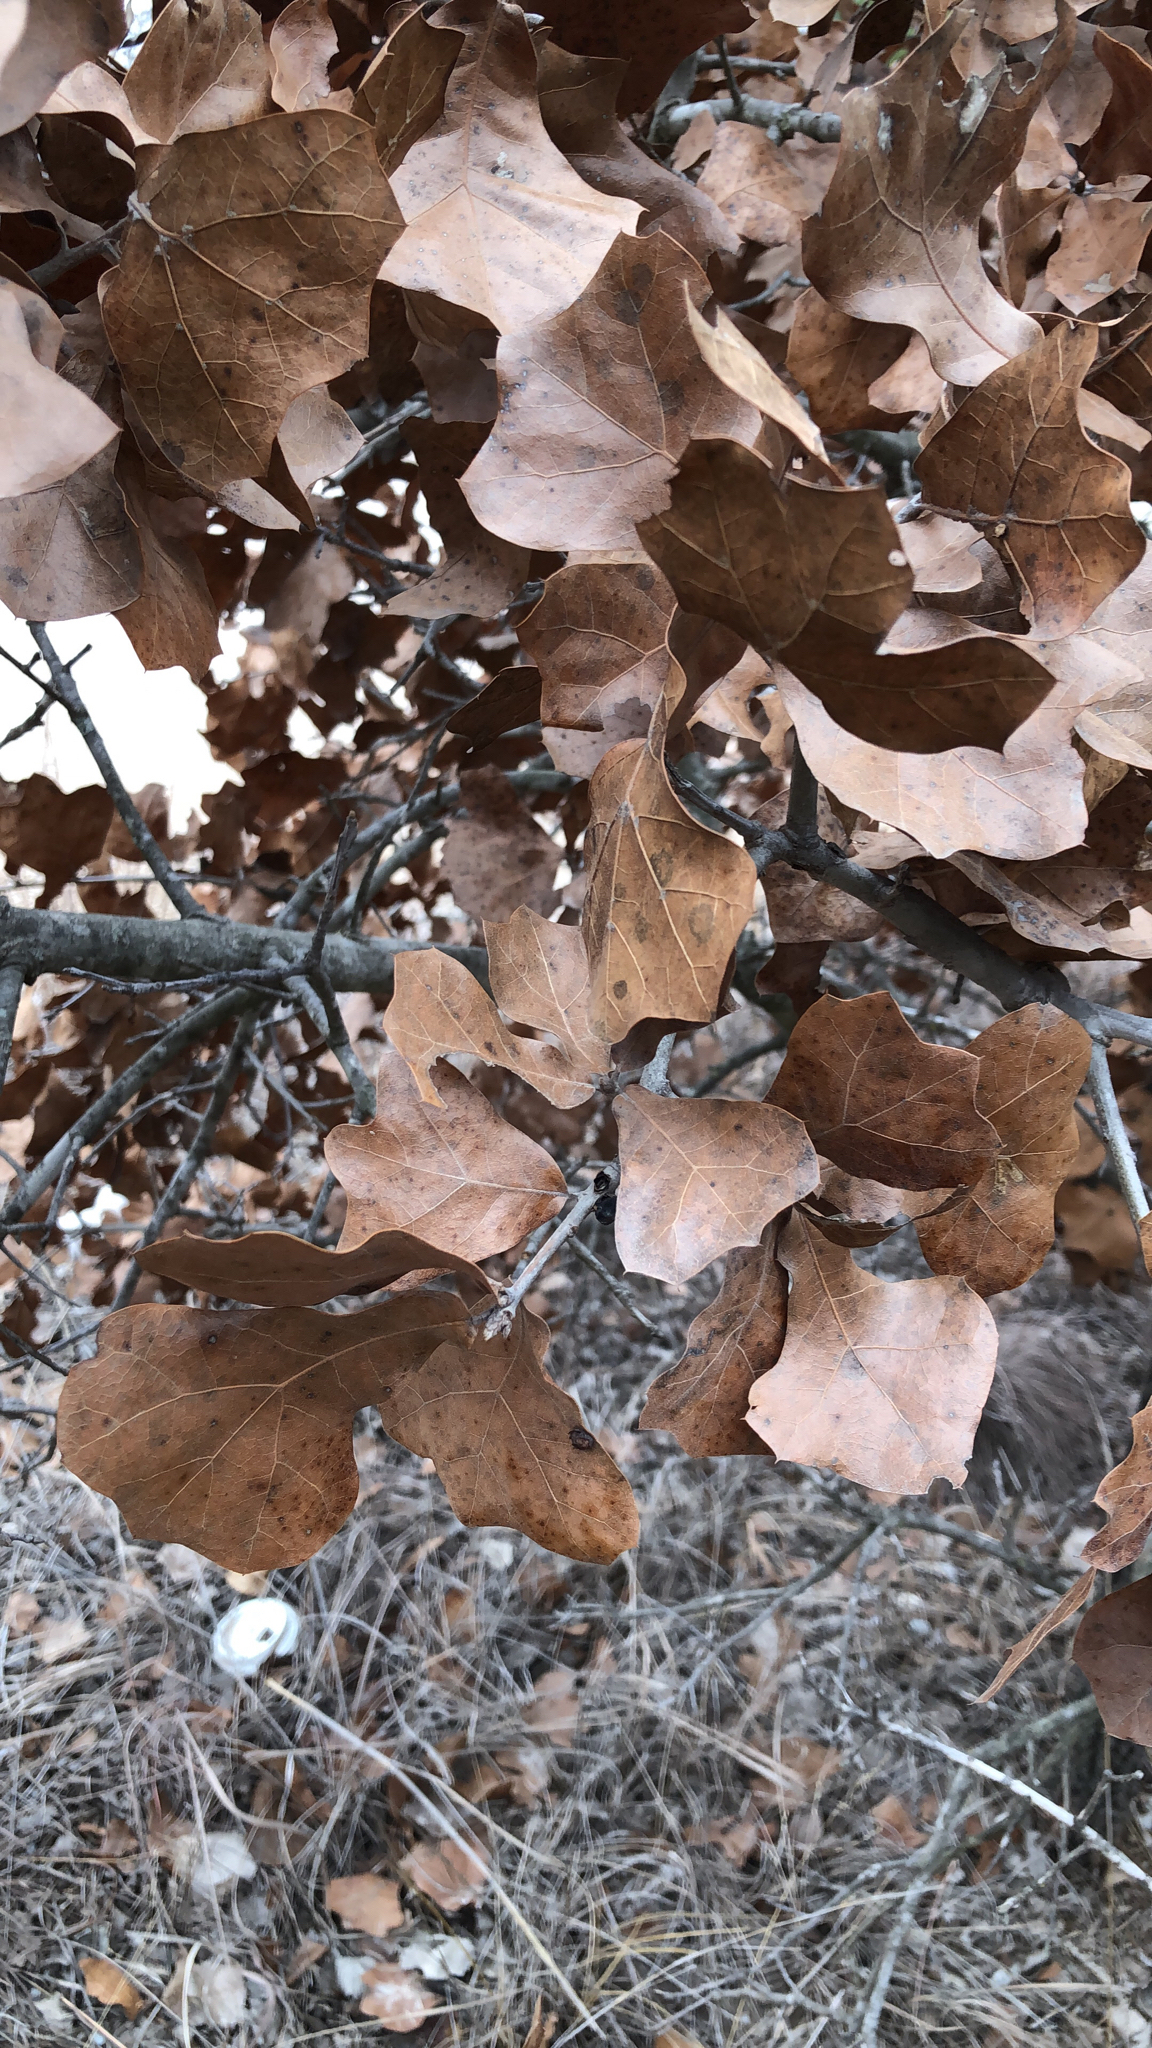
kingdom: Plantae
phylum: Tracheophyta
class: Magnoliopsida
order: Fagales
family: Fagaceae
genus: Quercus
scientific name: Quercus marilandica
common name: Blackjack oak
